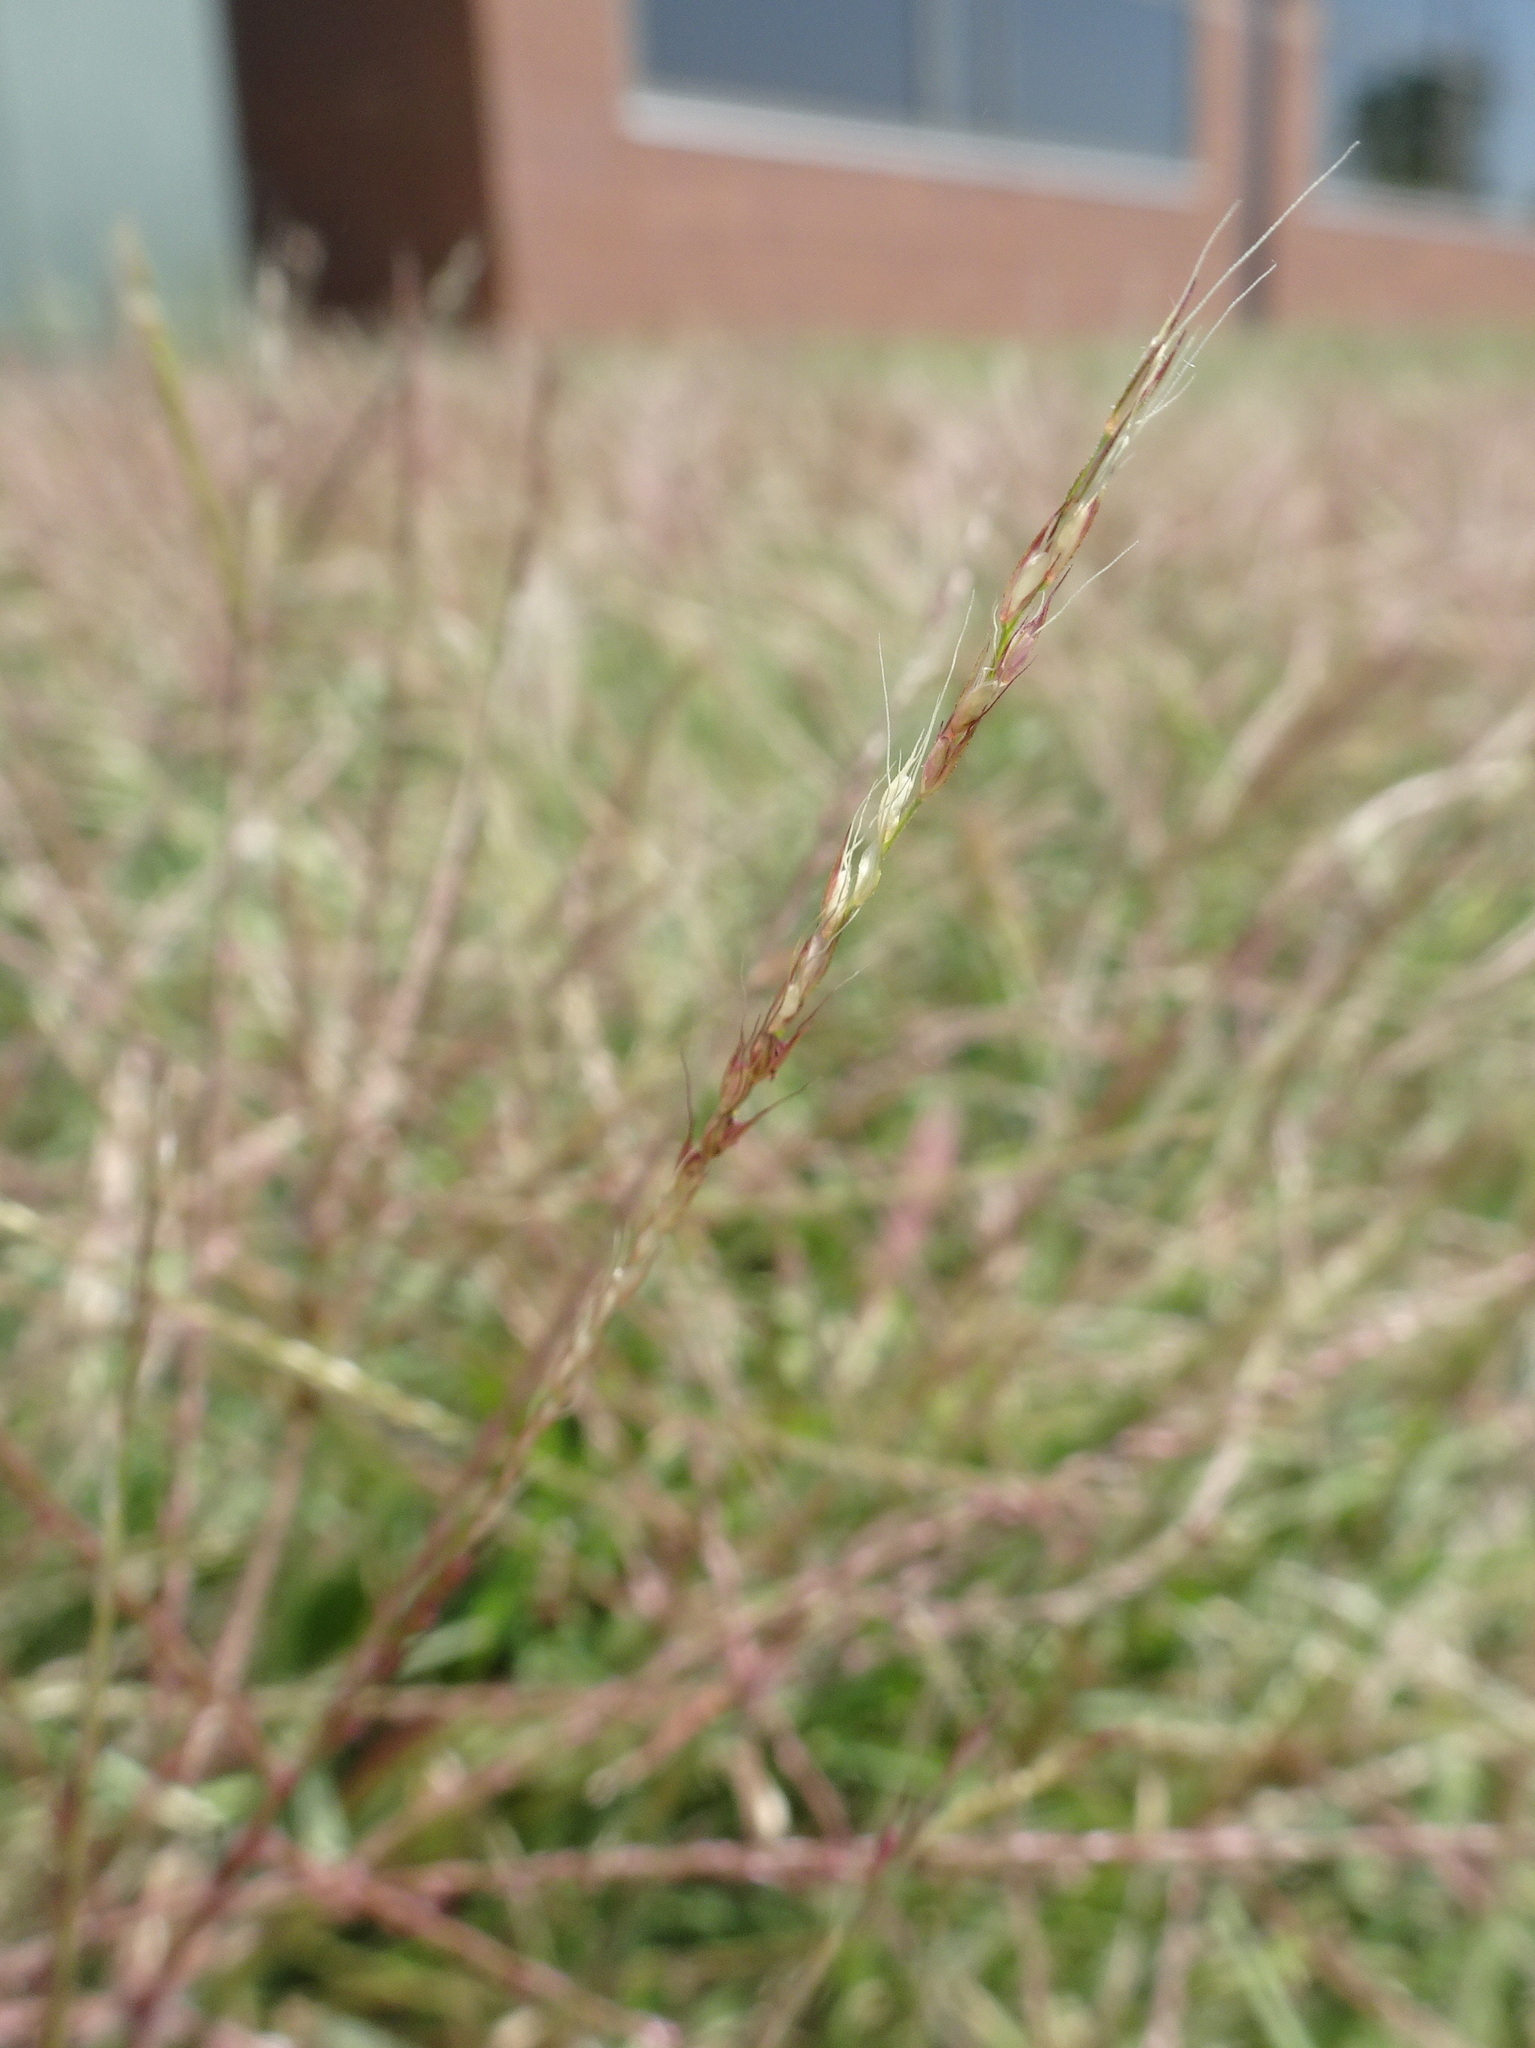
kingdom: Plantae
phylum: Tracheophyta
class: Liliopsida
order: Poales
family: Poaceae
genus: Muhlenbergia
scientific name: Muhlenbergia schreberi
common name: Nimblewill
